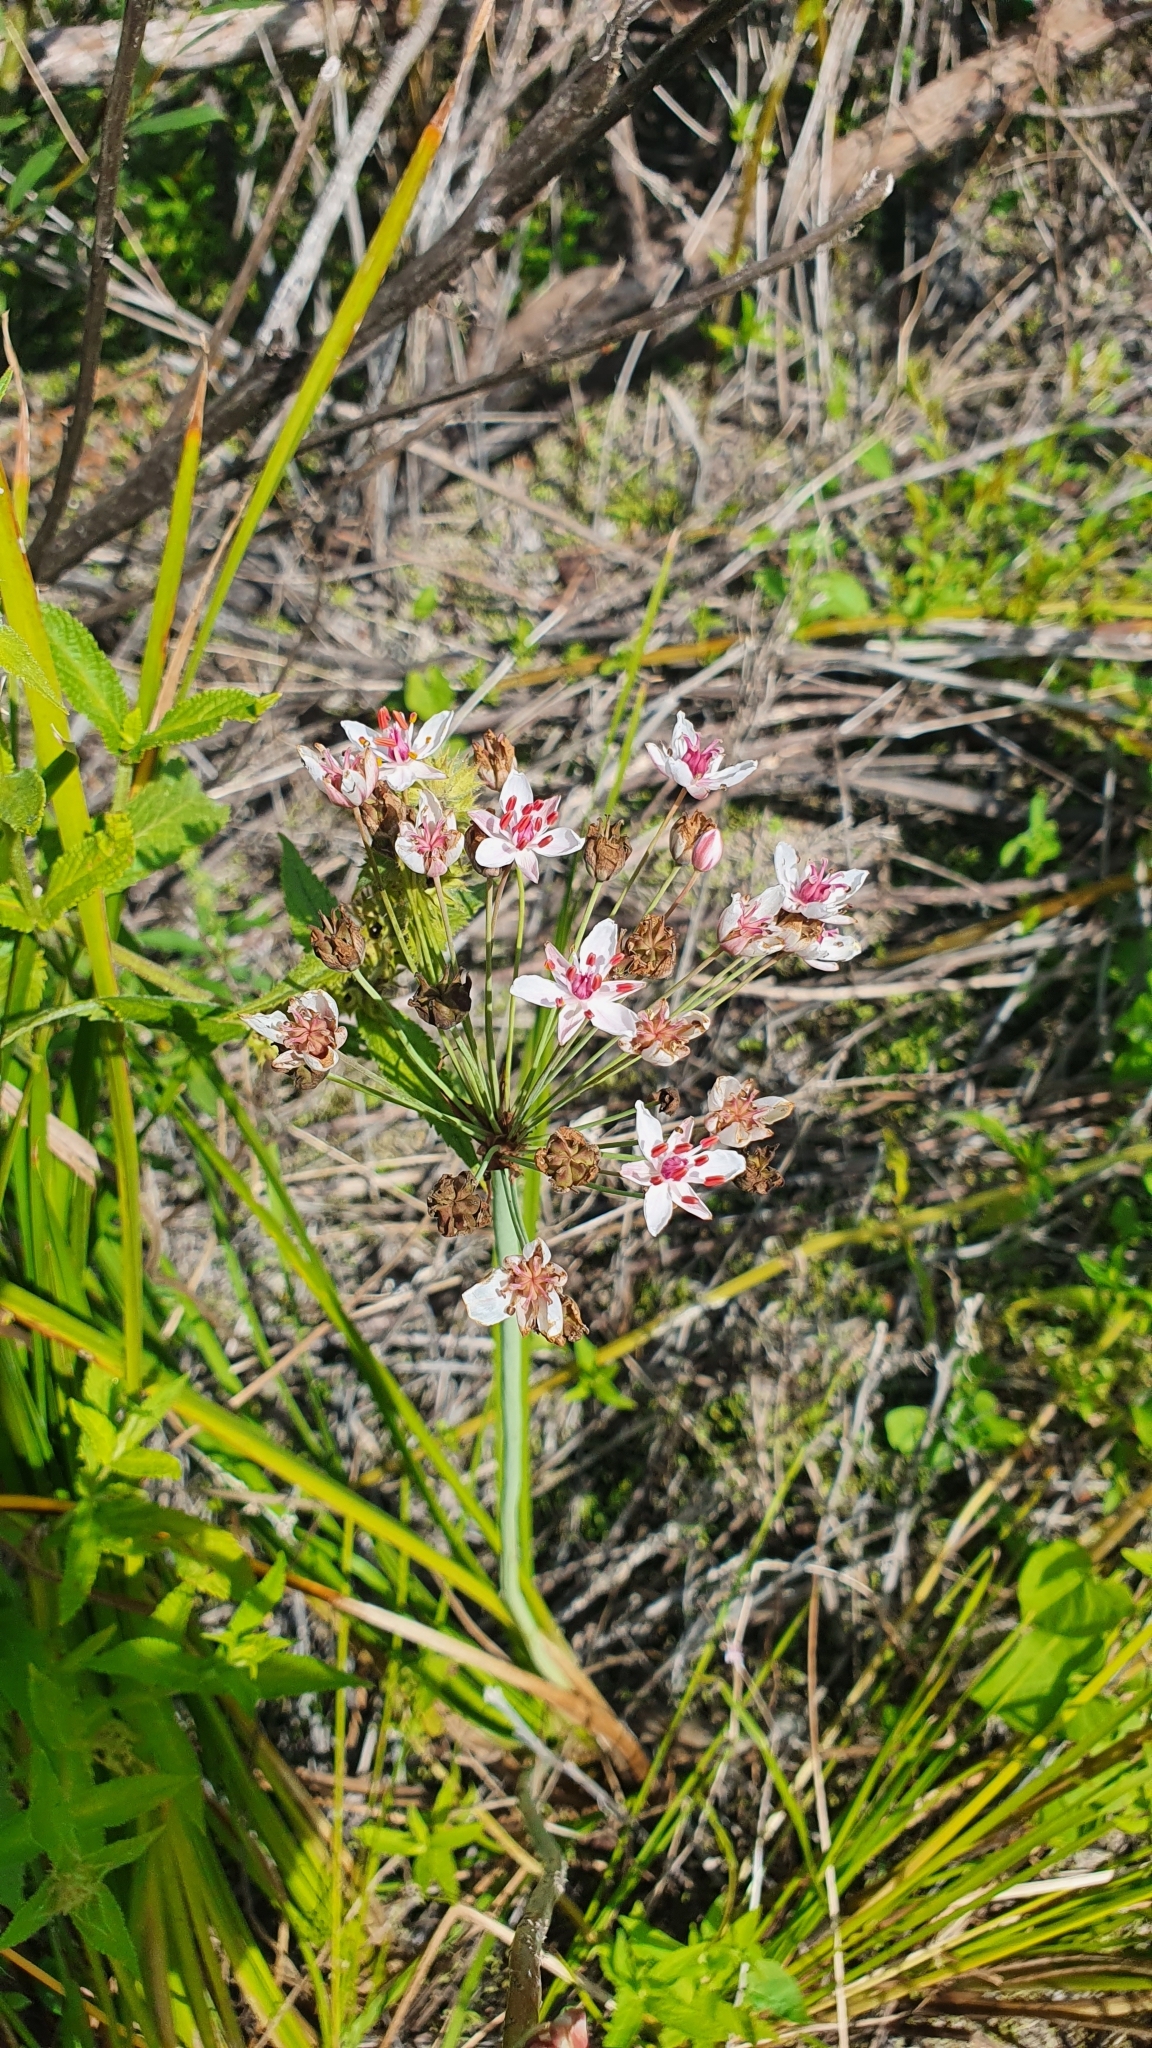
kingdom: Plantae
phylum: Tracheophyta
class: Liliopsida
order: Alismatales
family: Butomaceae
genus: Butomus
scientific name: Butomus umbellatus
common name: Flowering-rush
